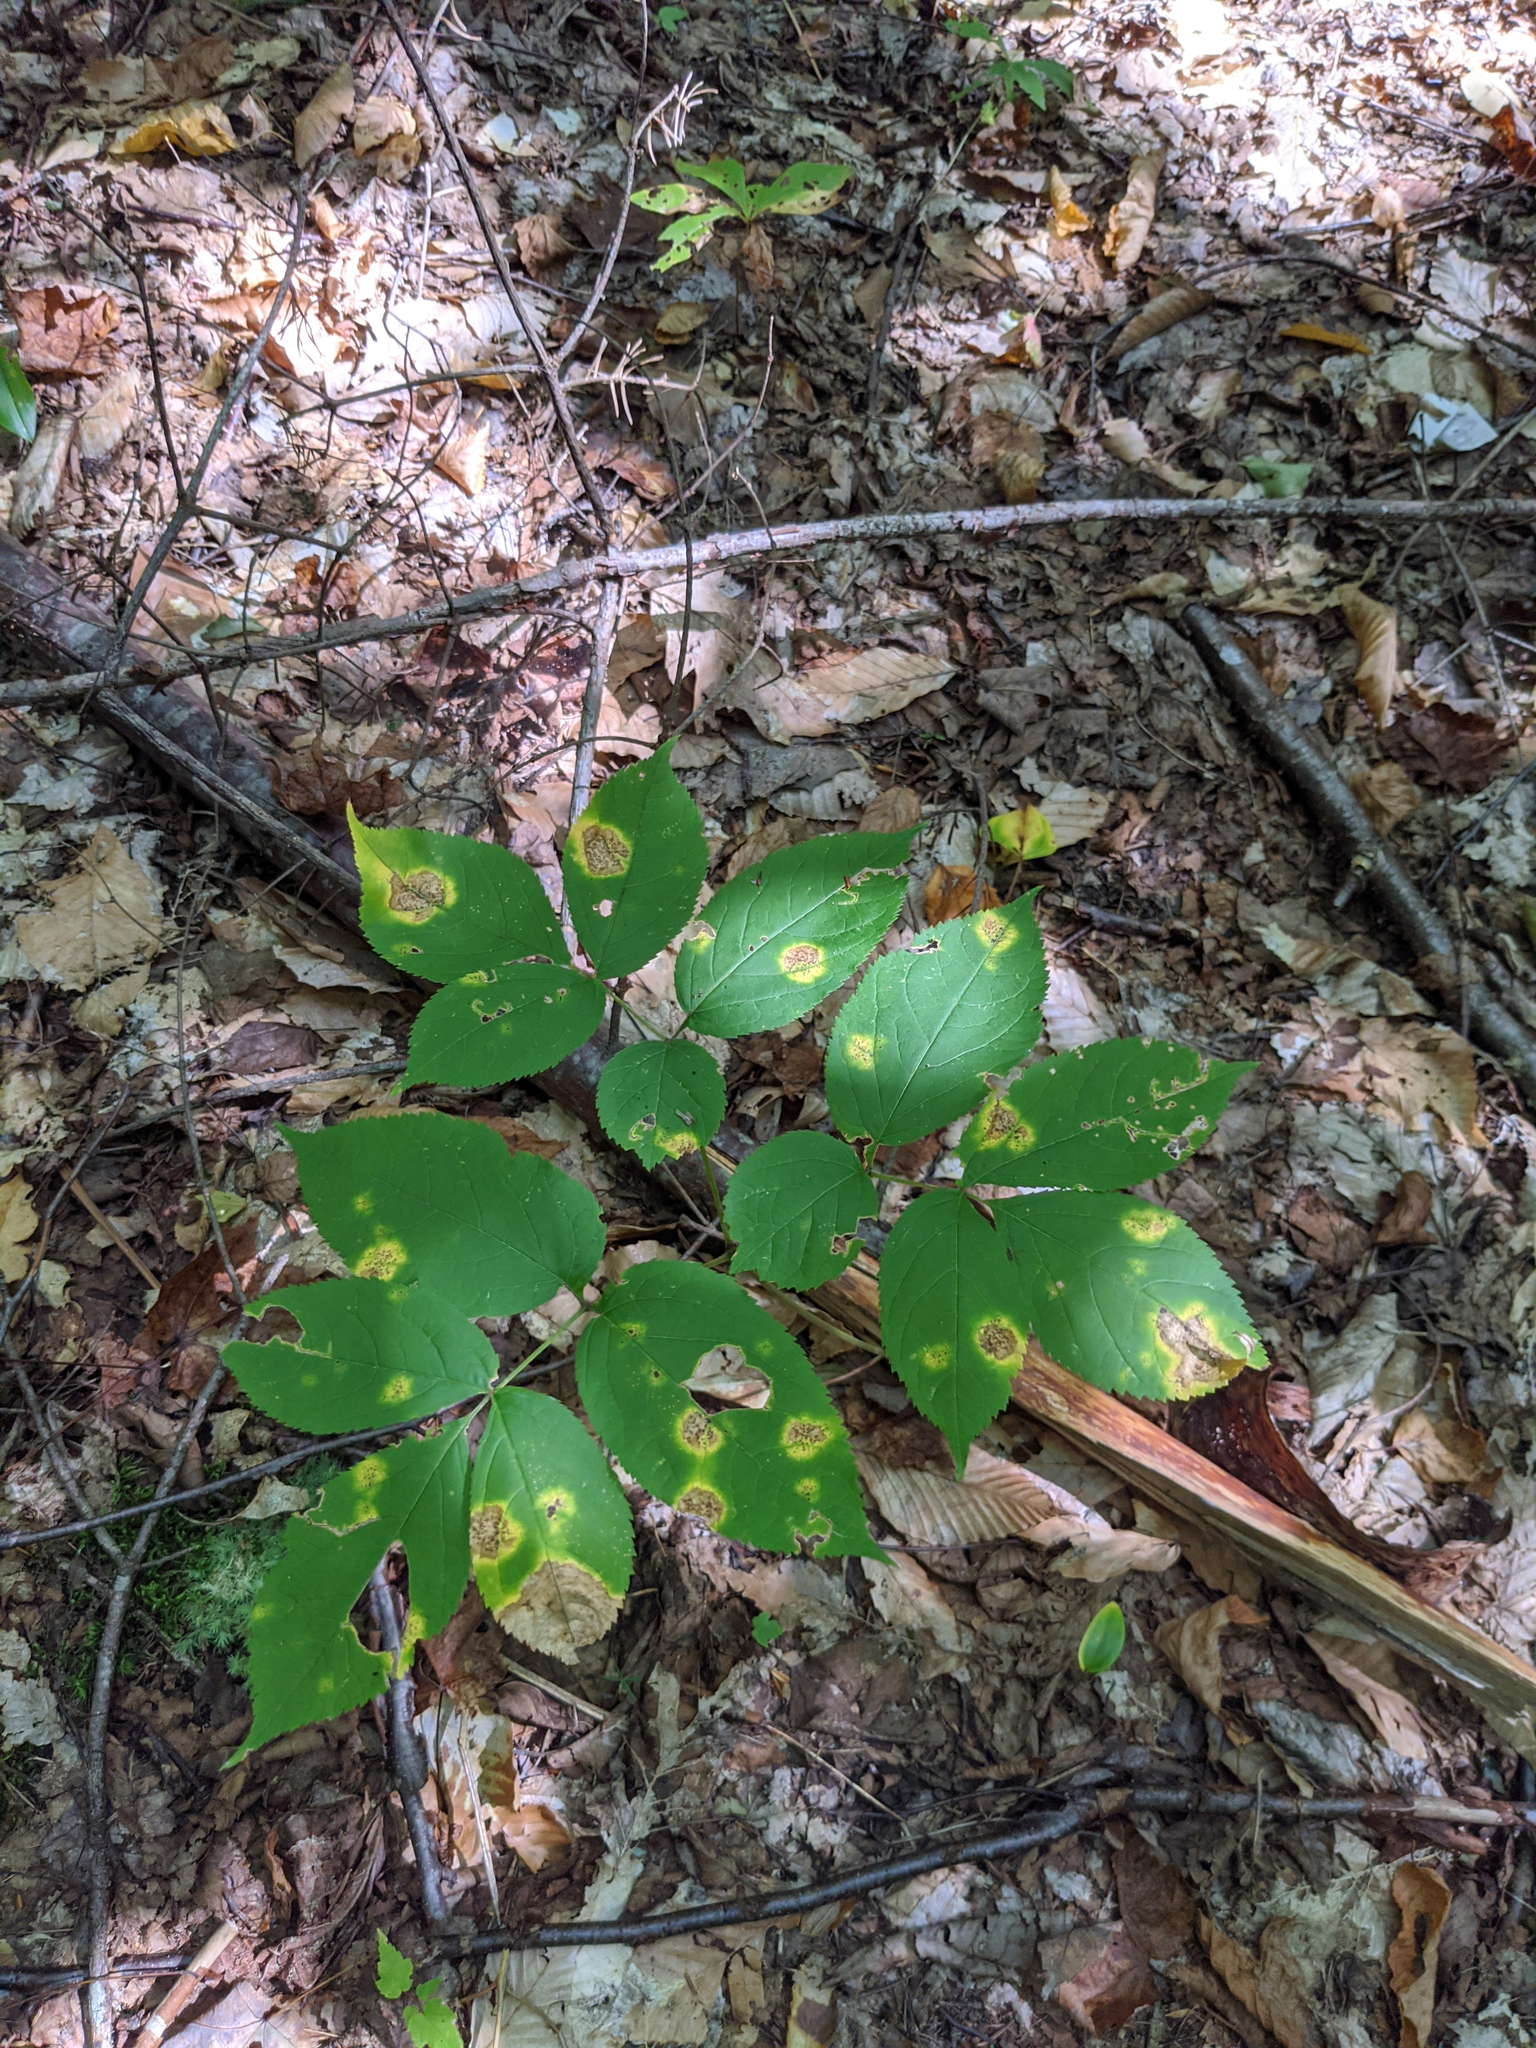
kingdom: Plantae
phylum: Tracheophyta
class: Magnoliopsida
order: Apiales
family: Araliaceae
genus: Aralia
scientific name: Aralia nudicaulis
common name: Wild sarsaparilla
